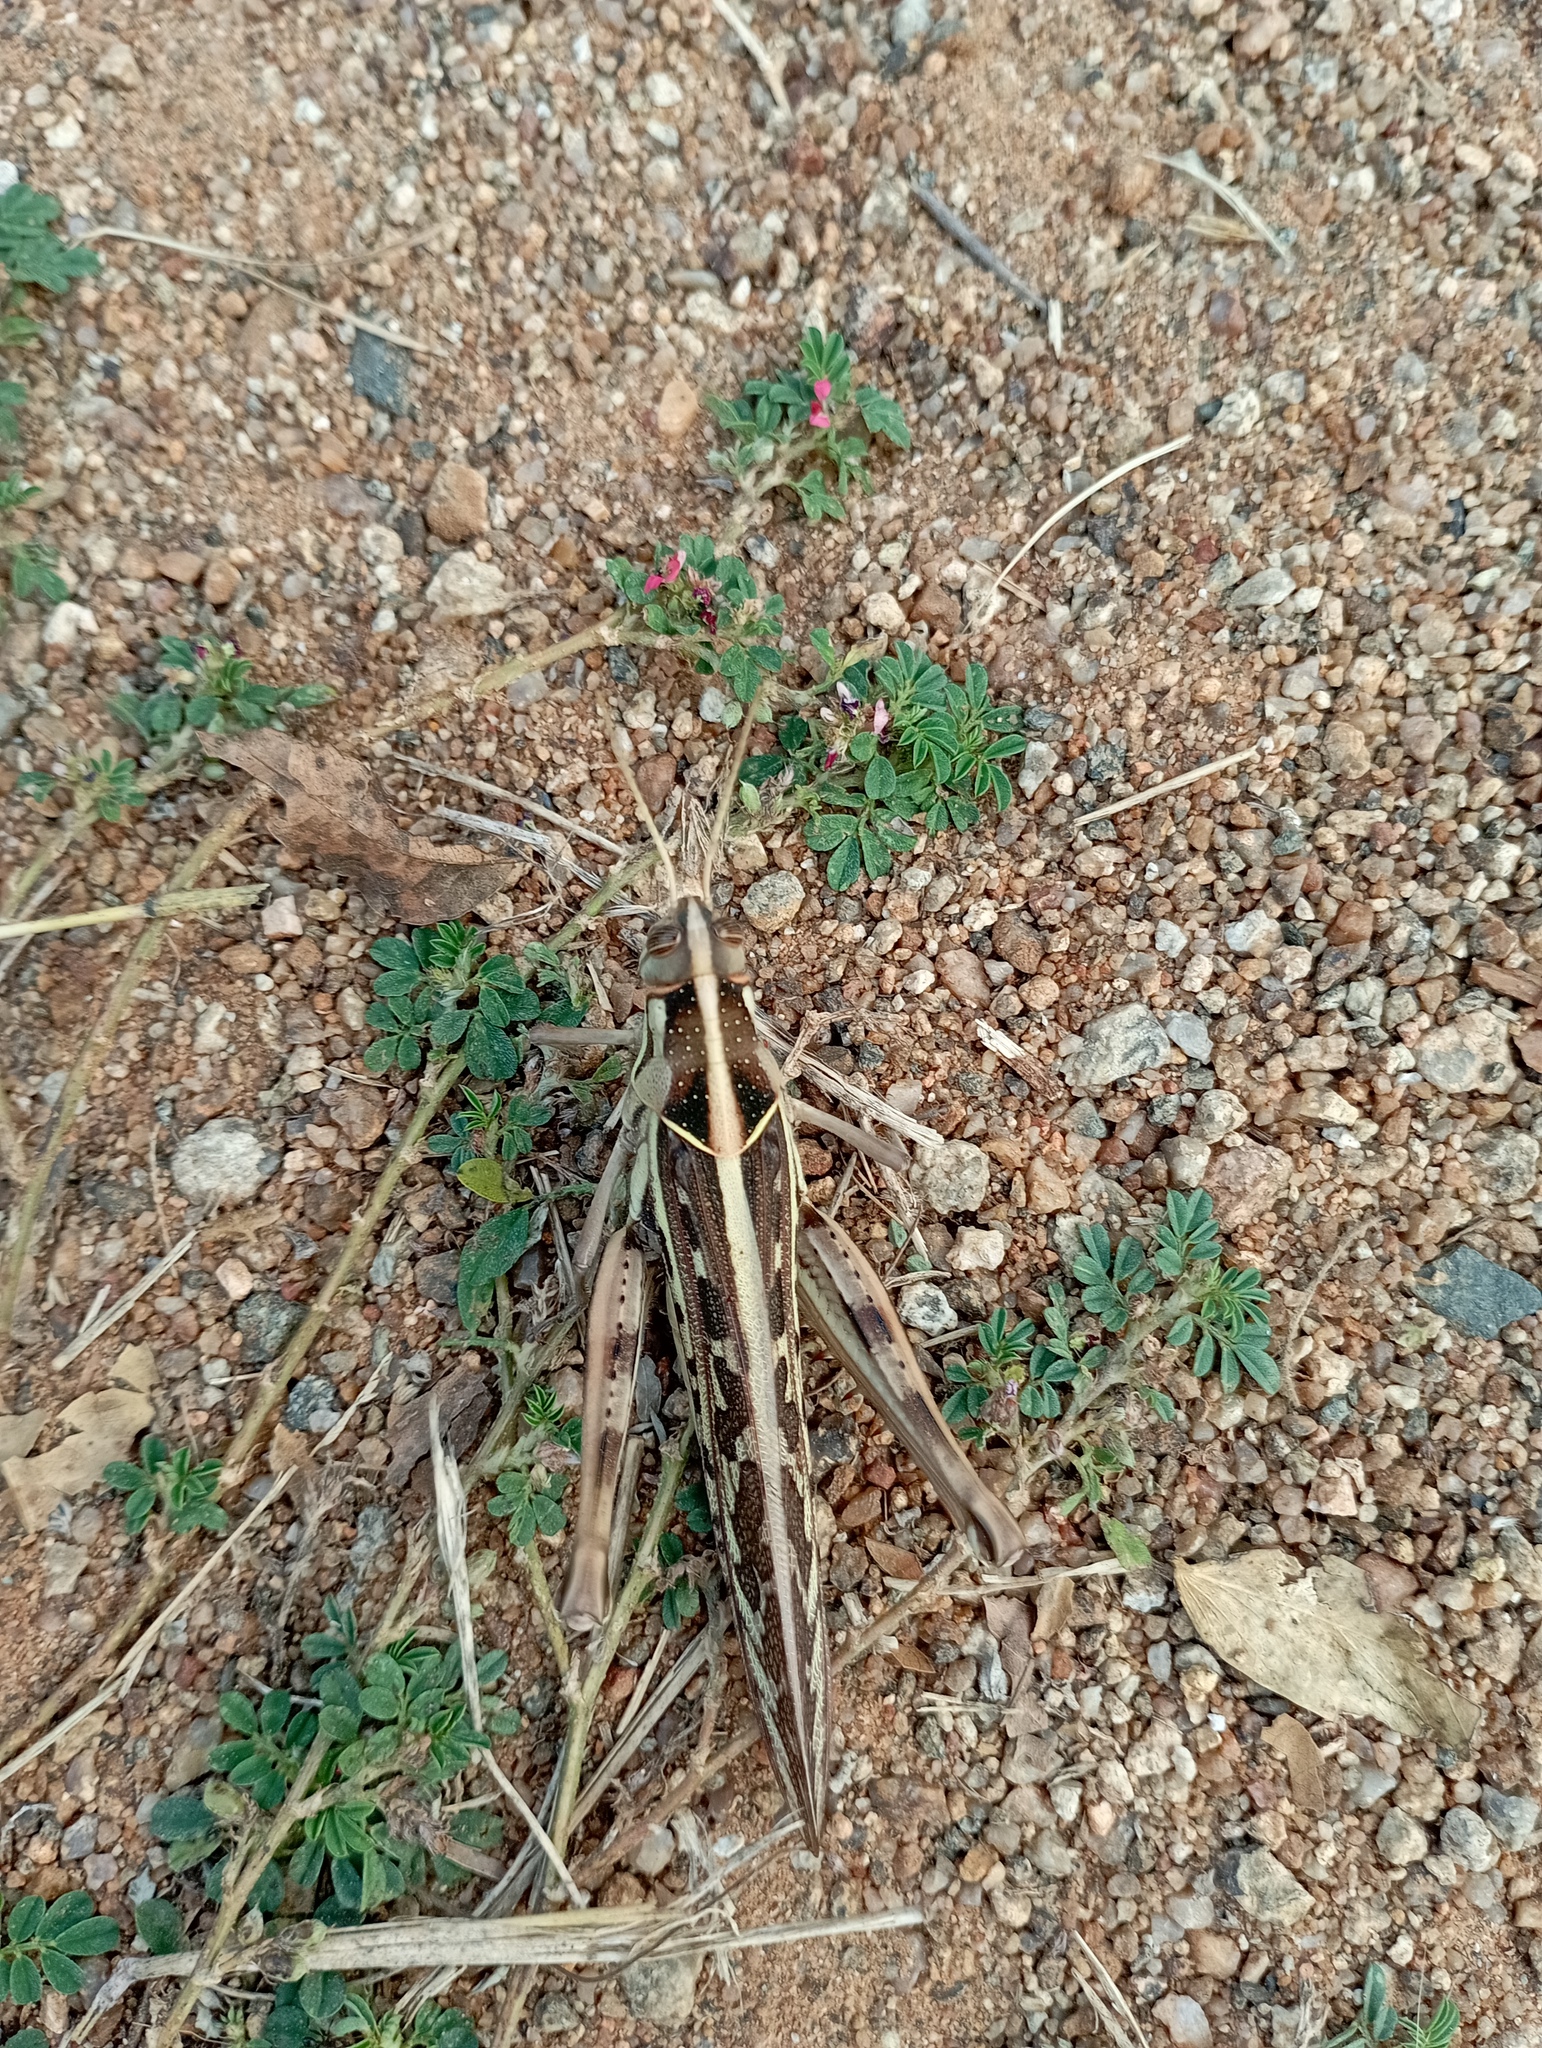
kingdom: Animalia
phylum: Arthropoda
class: Insecta
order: Orthoptera
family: Acrididae
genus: Cyrtacanthacris
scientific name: Cyrtacanthacris tatarica
